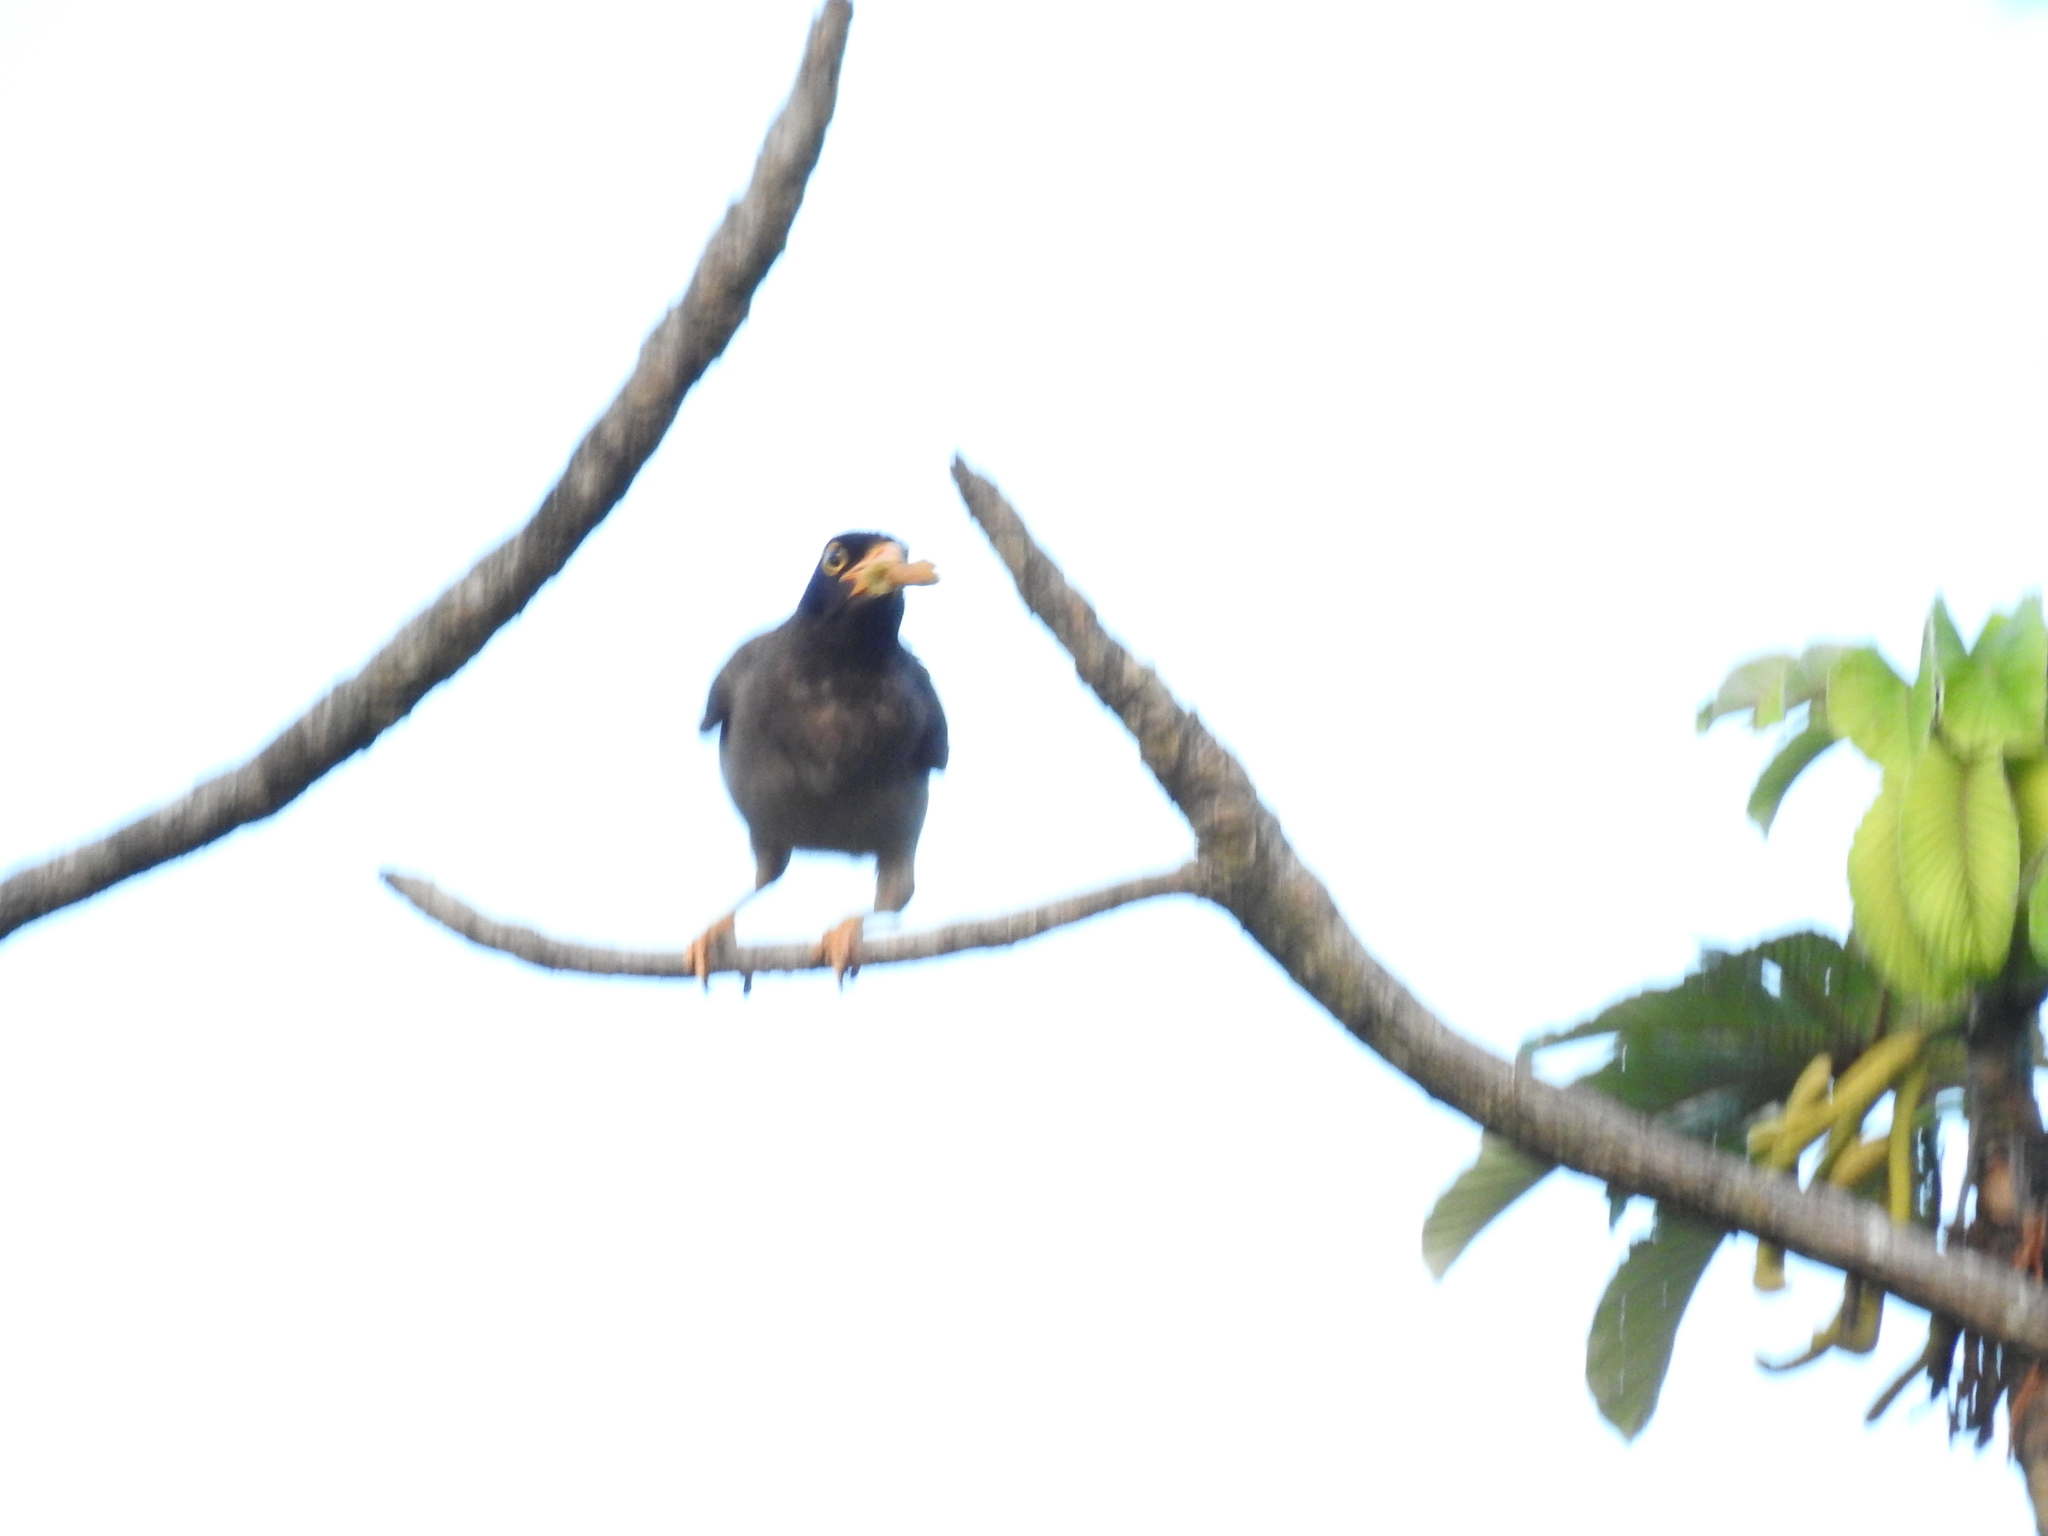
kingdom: Animalia
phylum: Chordata
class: Aves
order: Passeriformes
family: Corvidae
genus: Psilorhinus
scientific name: Psilorhinus morio
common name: Brown jay
